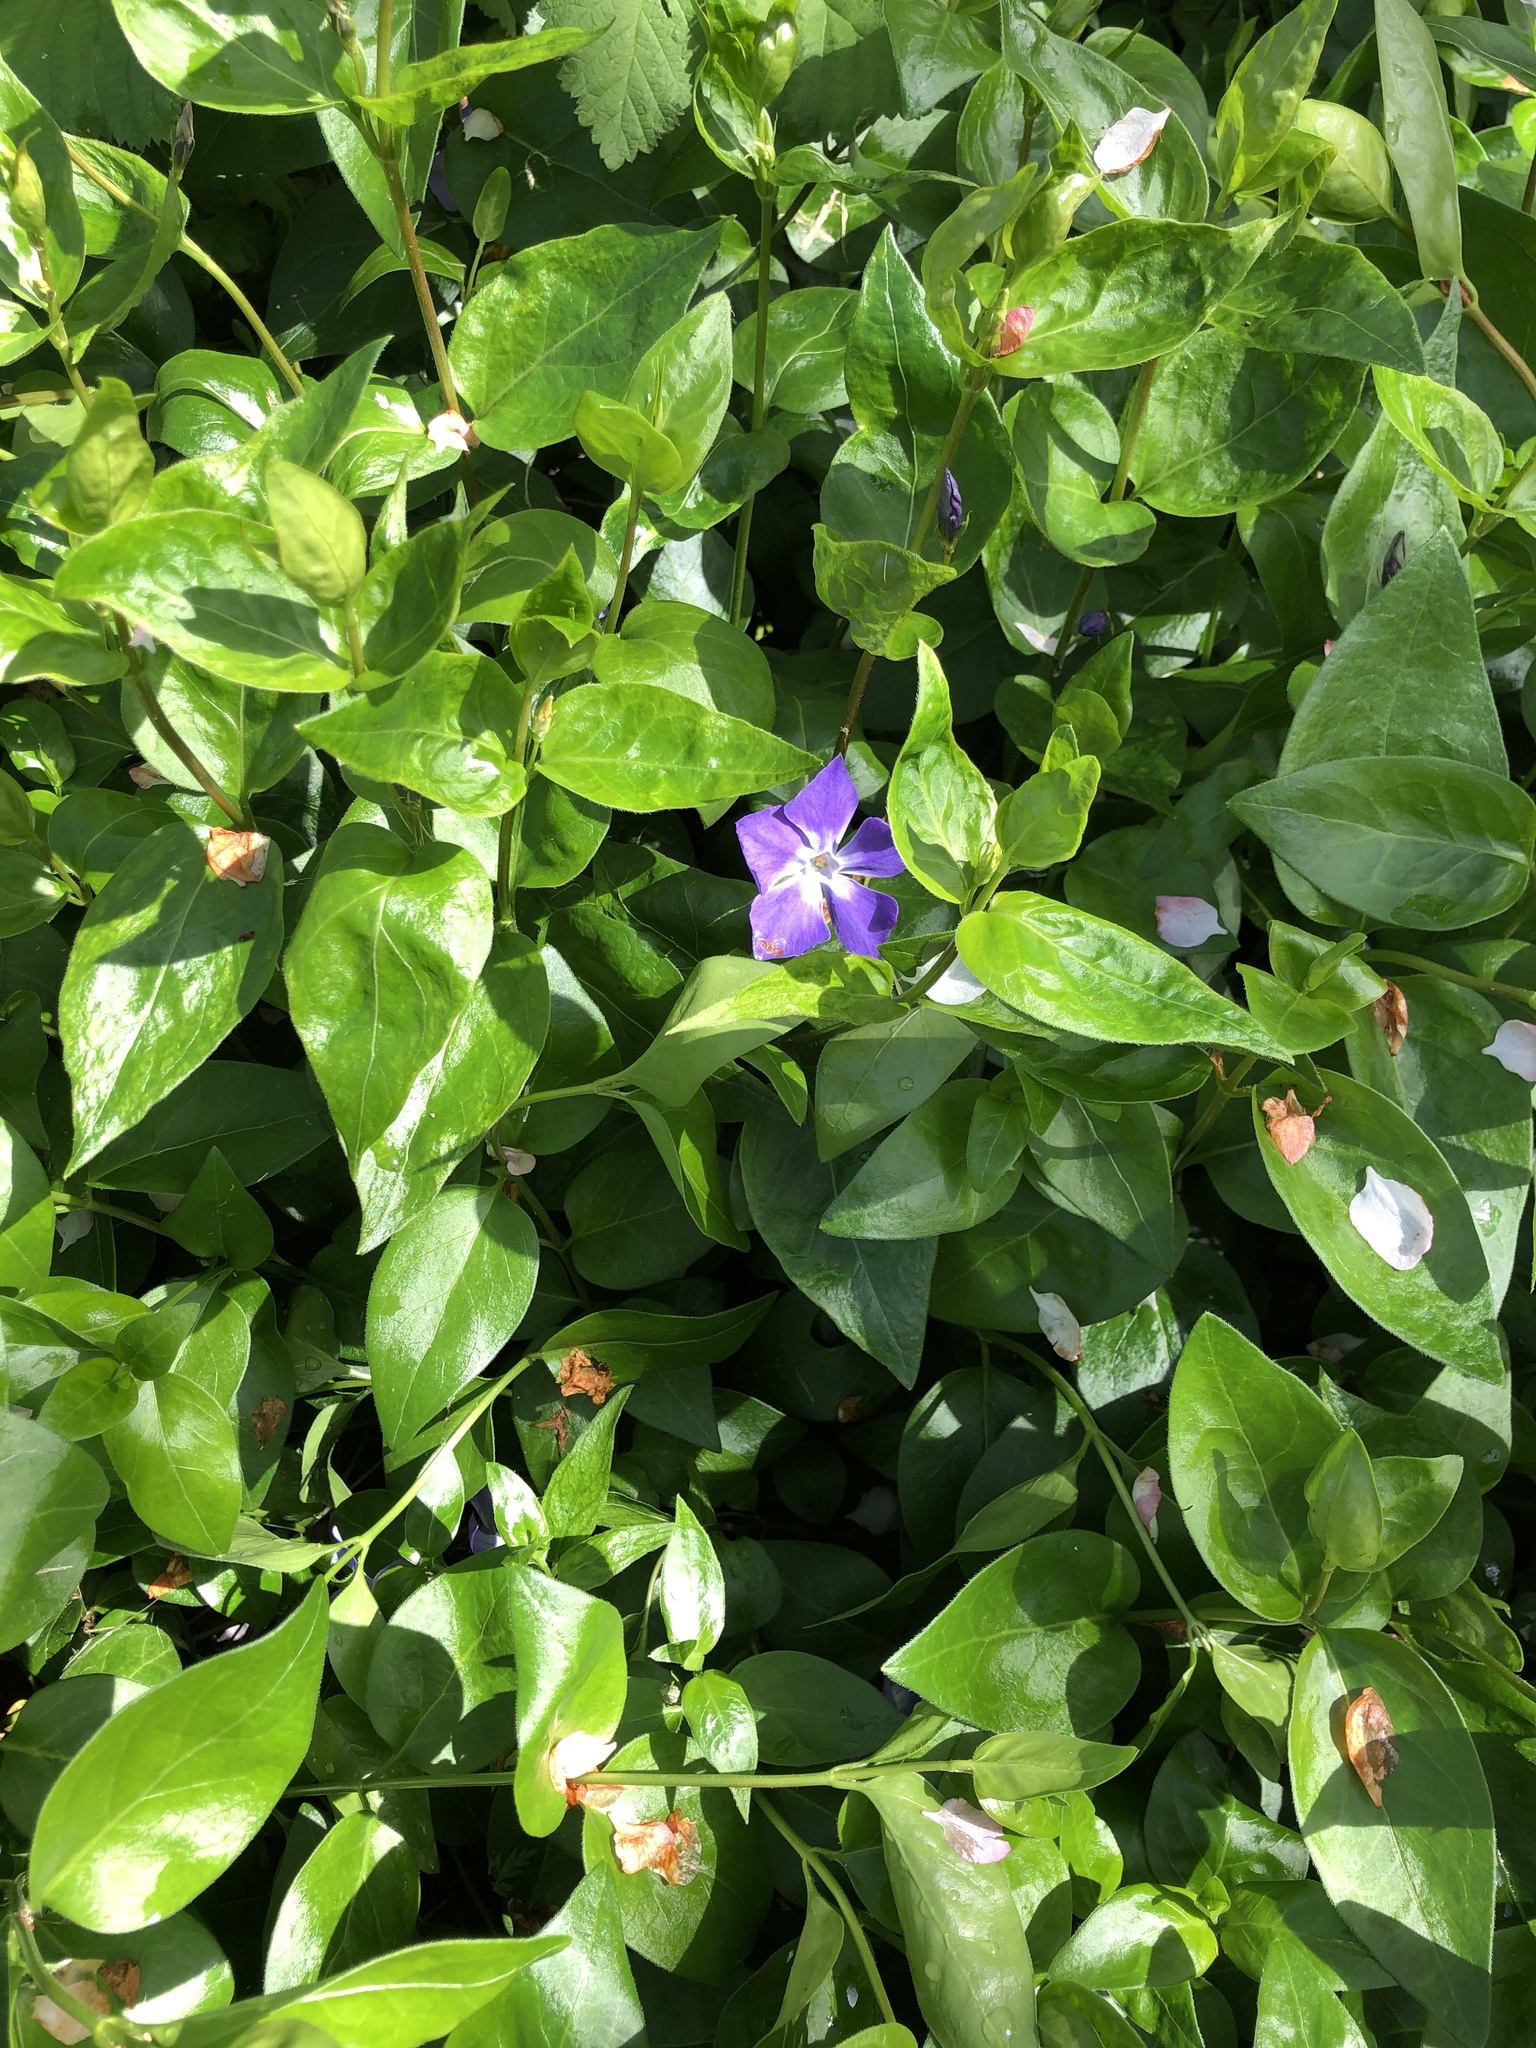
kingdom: Plantae
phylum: Tracheophyta
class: Magnoliopsida
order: Gentianales
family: Apocynaceae
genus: Vinca
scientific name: Vinca major
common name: Greater periwinkle
